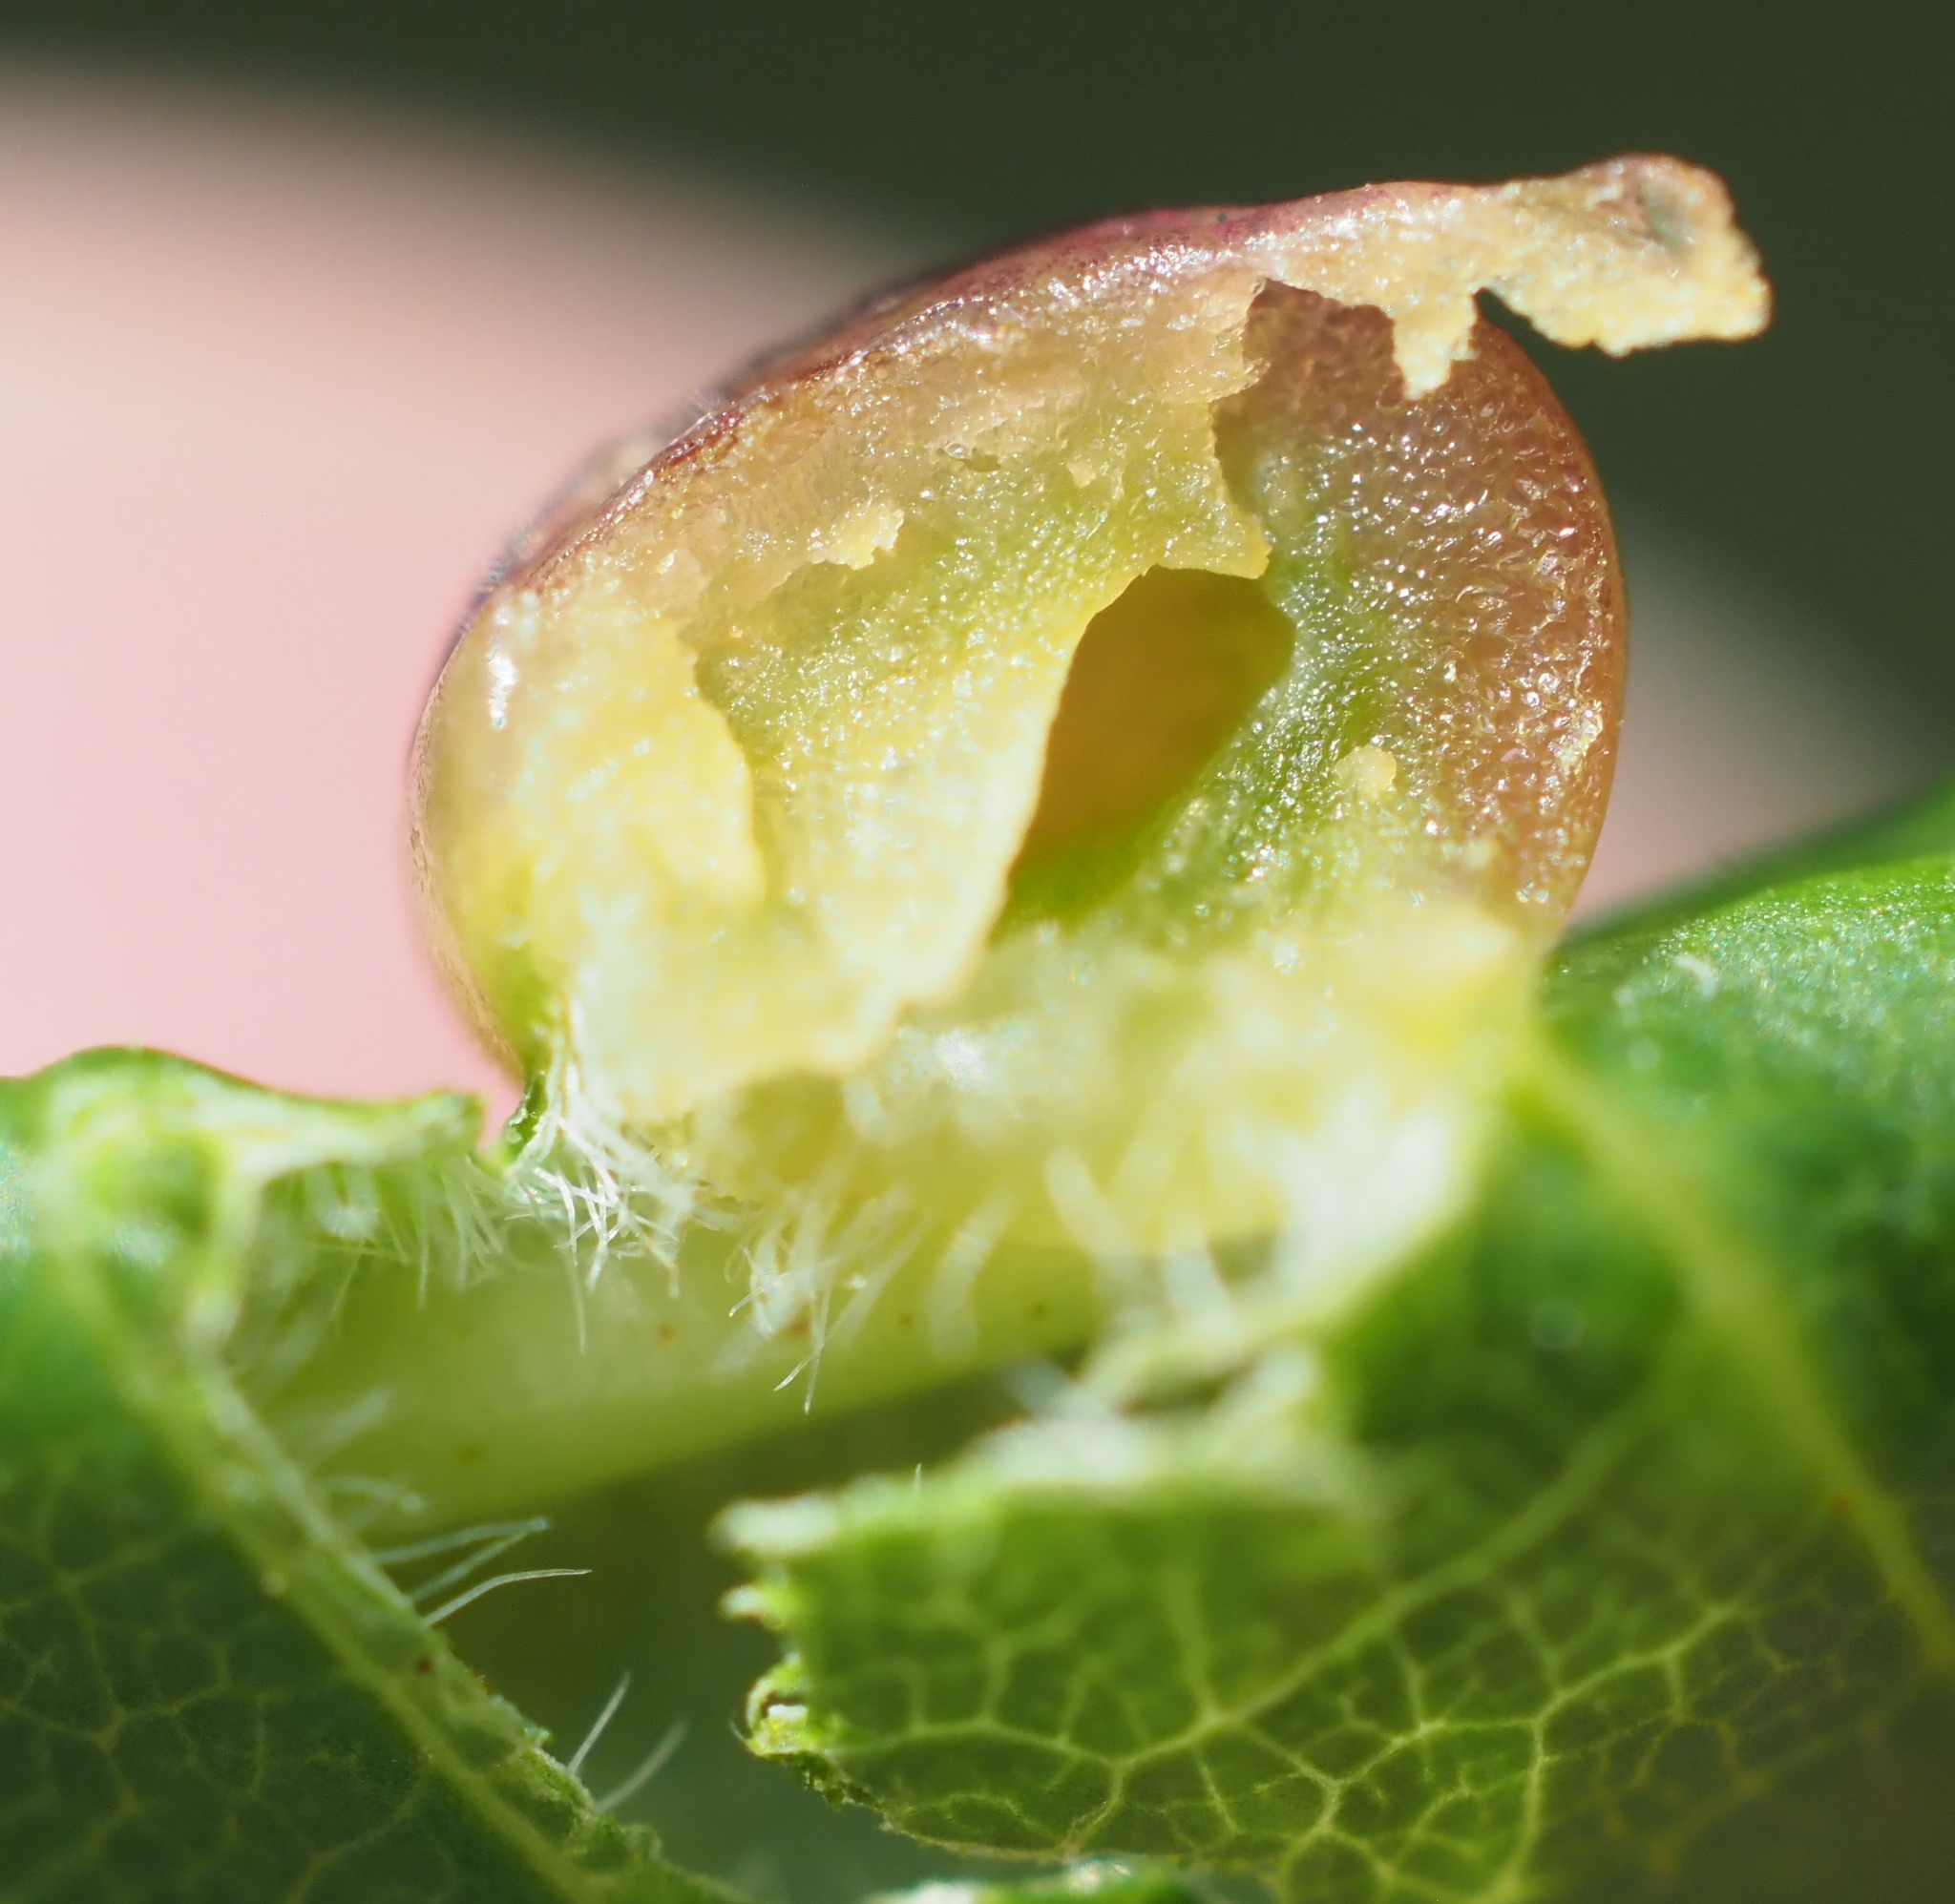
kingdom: Animalia
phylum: Arthropoda
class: Insecta
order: Diptera
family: Cecidomyiidae
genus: Dasineura
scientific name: Dasineura pellex
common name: Ash bullet gall midge
